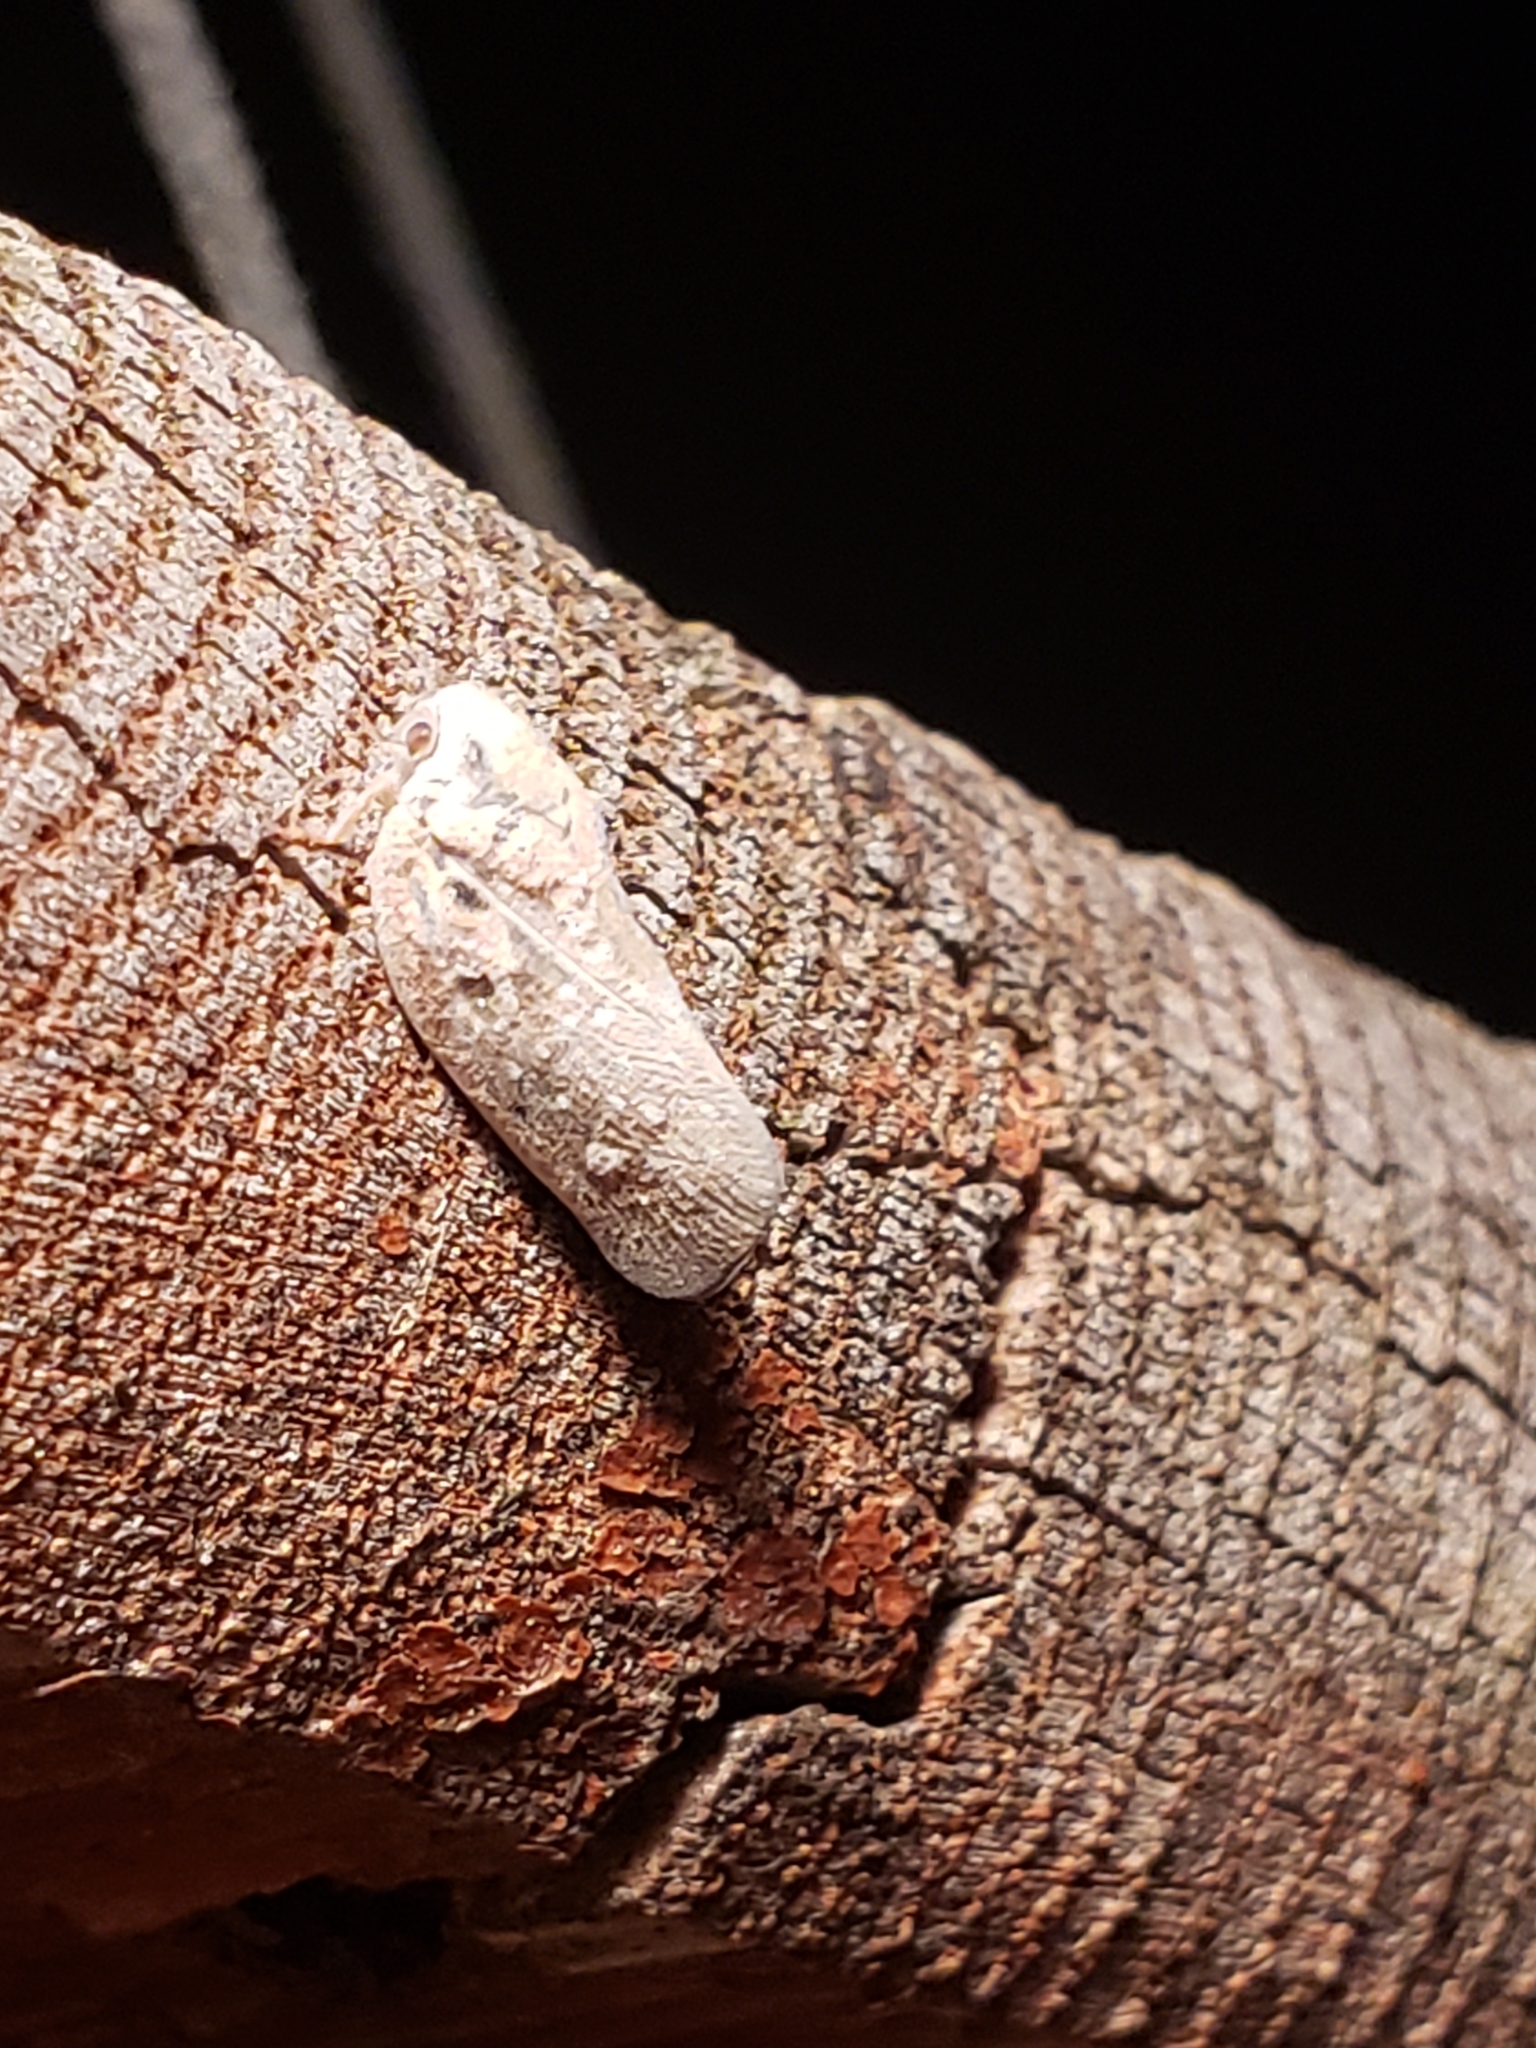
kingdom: Animalia
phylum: Arthropoda
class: Insecta
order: Hemiptera
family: Flatidae
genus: Metcalfa
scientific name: Metcalfa pruinosa
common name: Citrus flatid planthopper
